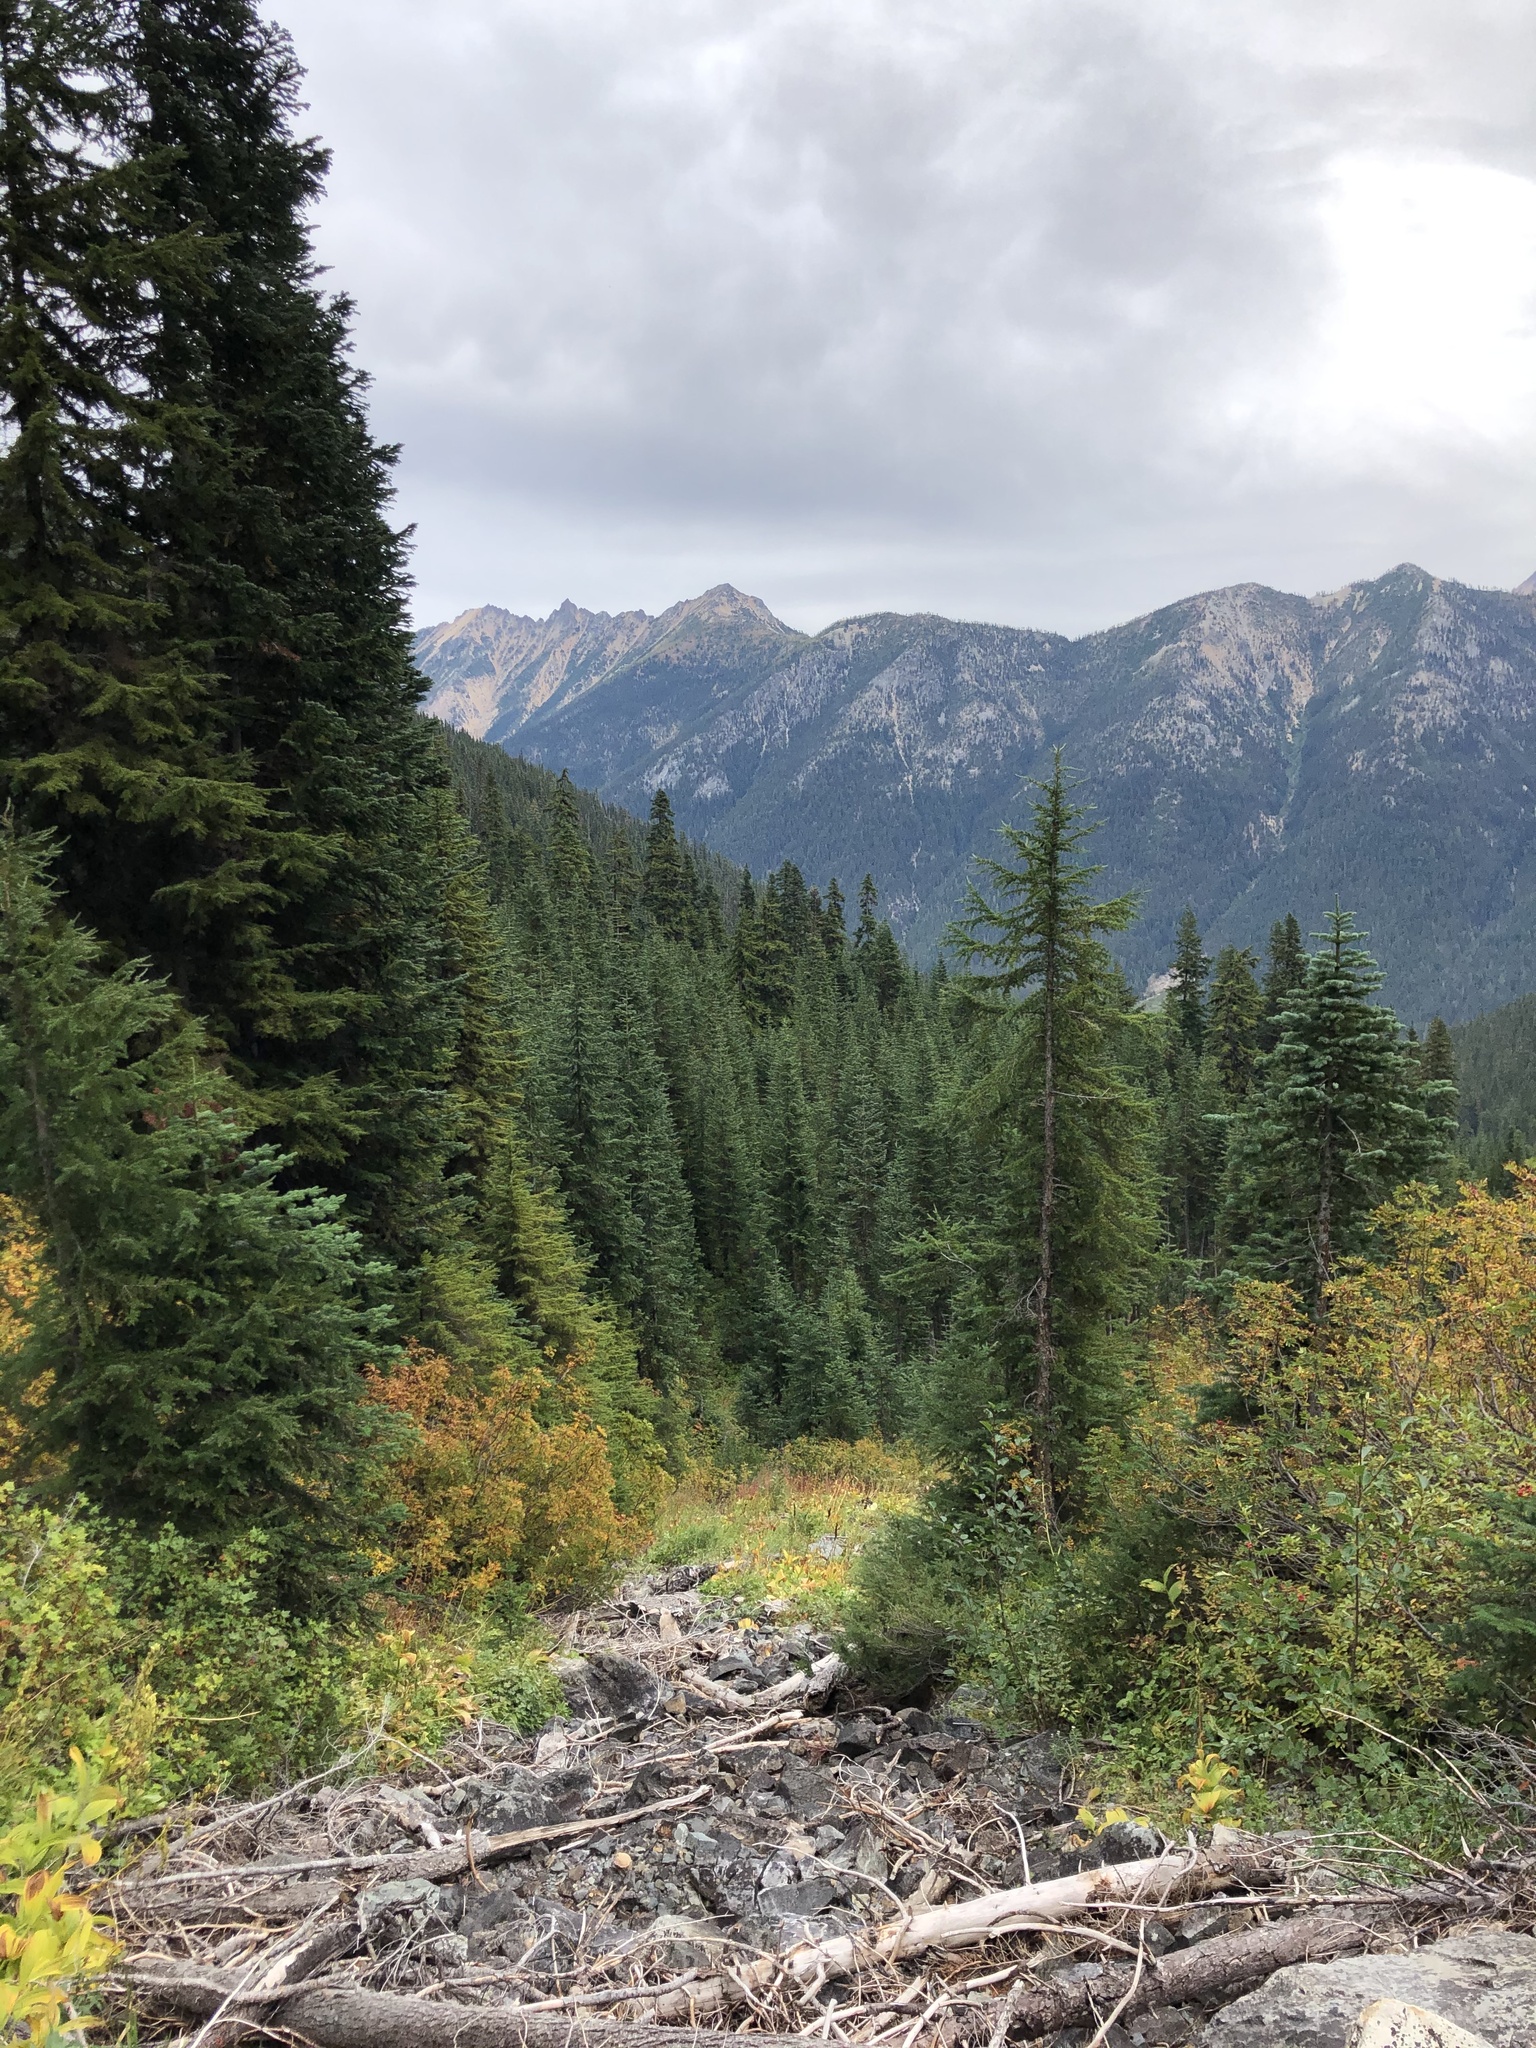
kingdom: Plantae
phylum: Tracheophyta
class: Pinopsida
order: Pinales
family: Pinaceae
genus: Tsuga
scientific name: Tsuga mertensiana
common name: Mountain hemlock
